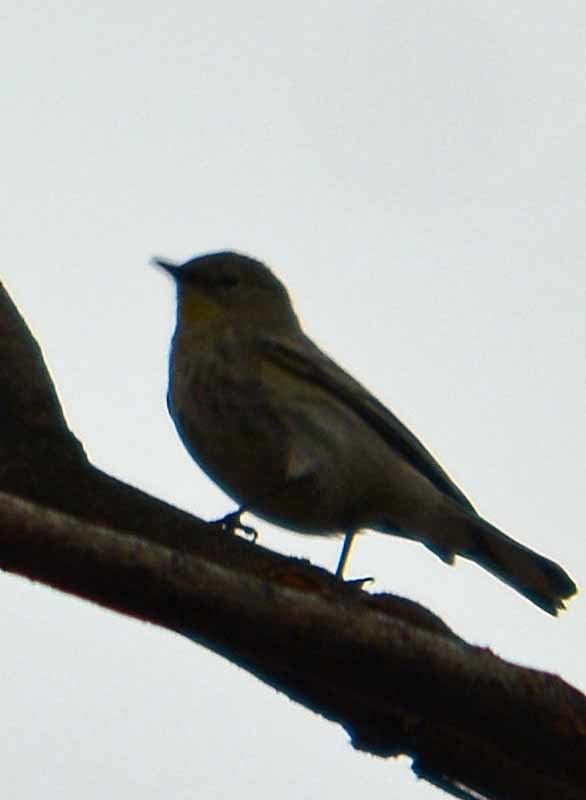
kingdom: Animalia
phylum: Chordata
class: Aves
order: Passeriformes
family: Parulidae
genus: Setophaga
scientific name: Setophaga coronata
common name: Myrtle warbler
